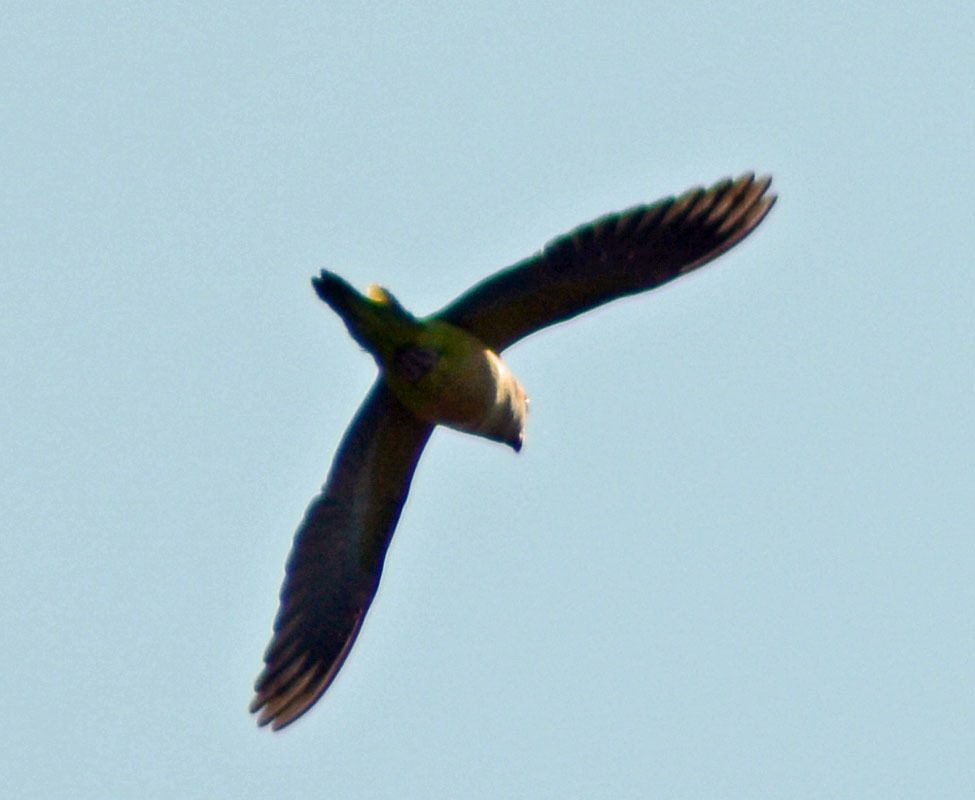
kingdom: Animalia
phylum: Chordata
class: Aves
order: Psittaciformes
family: Psittacidae
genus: Myiopsitta
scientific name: Myiopsitta monachus
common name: Monk parakeet
